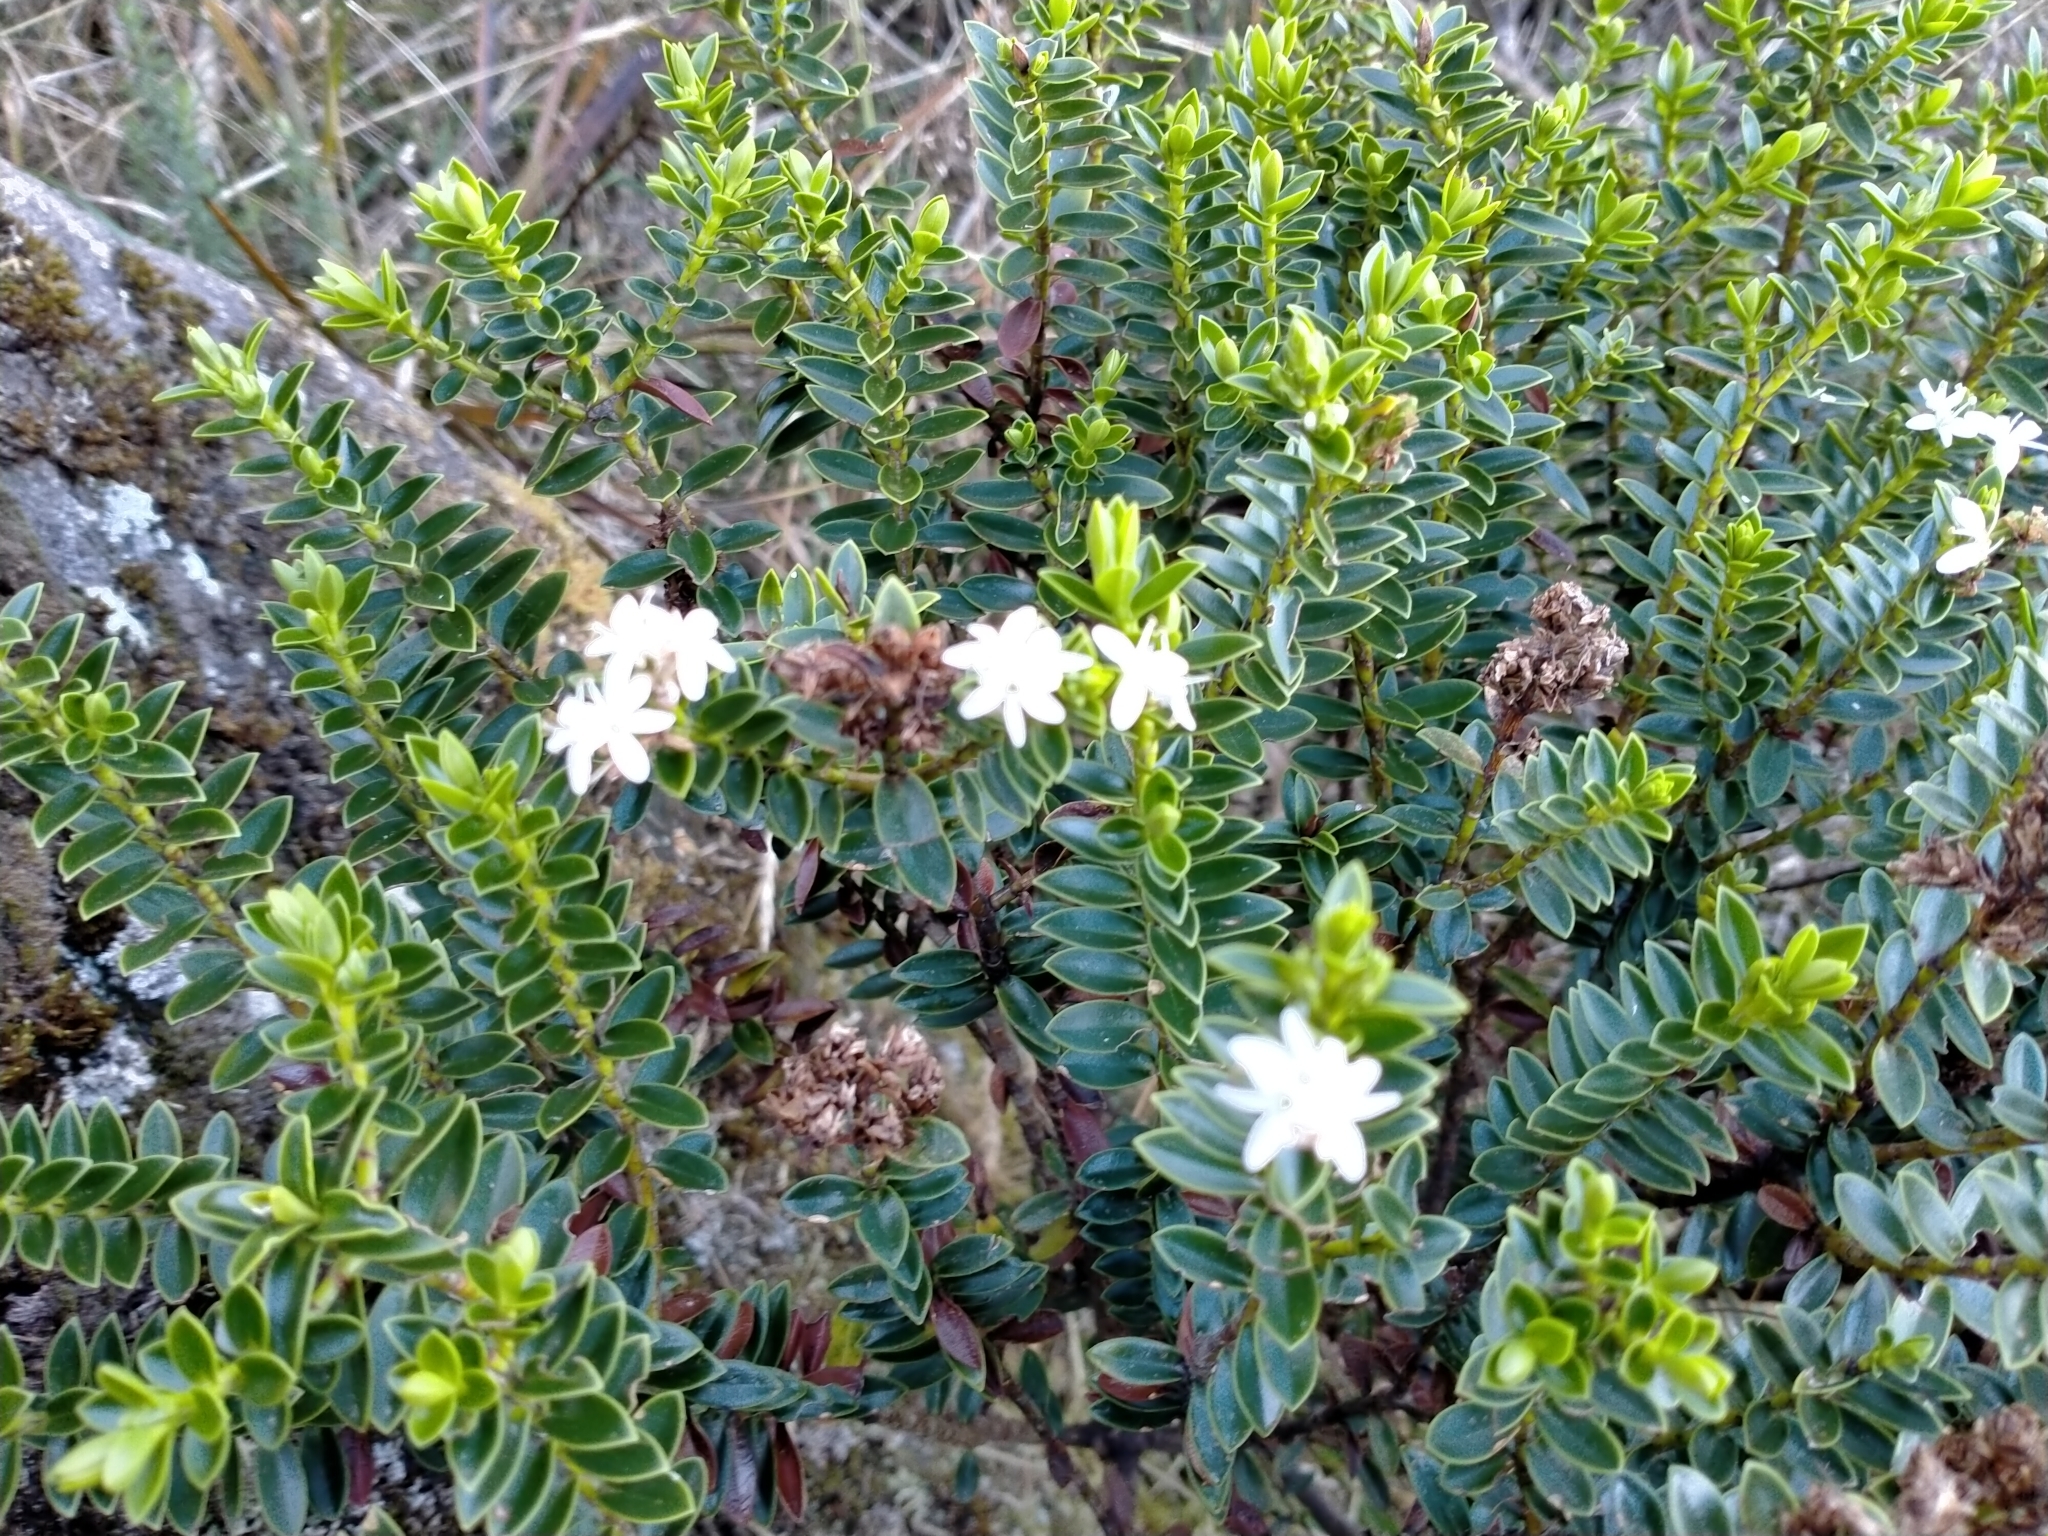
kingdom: Plantae
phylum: Tracheophyta
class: Magnoliopsida
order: Lamiales
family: Plantaginaceae
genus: Veronica
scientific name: Veronica odora
